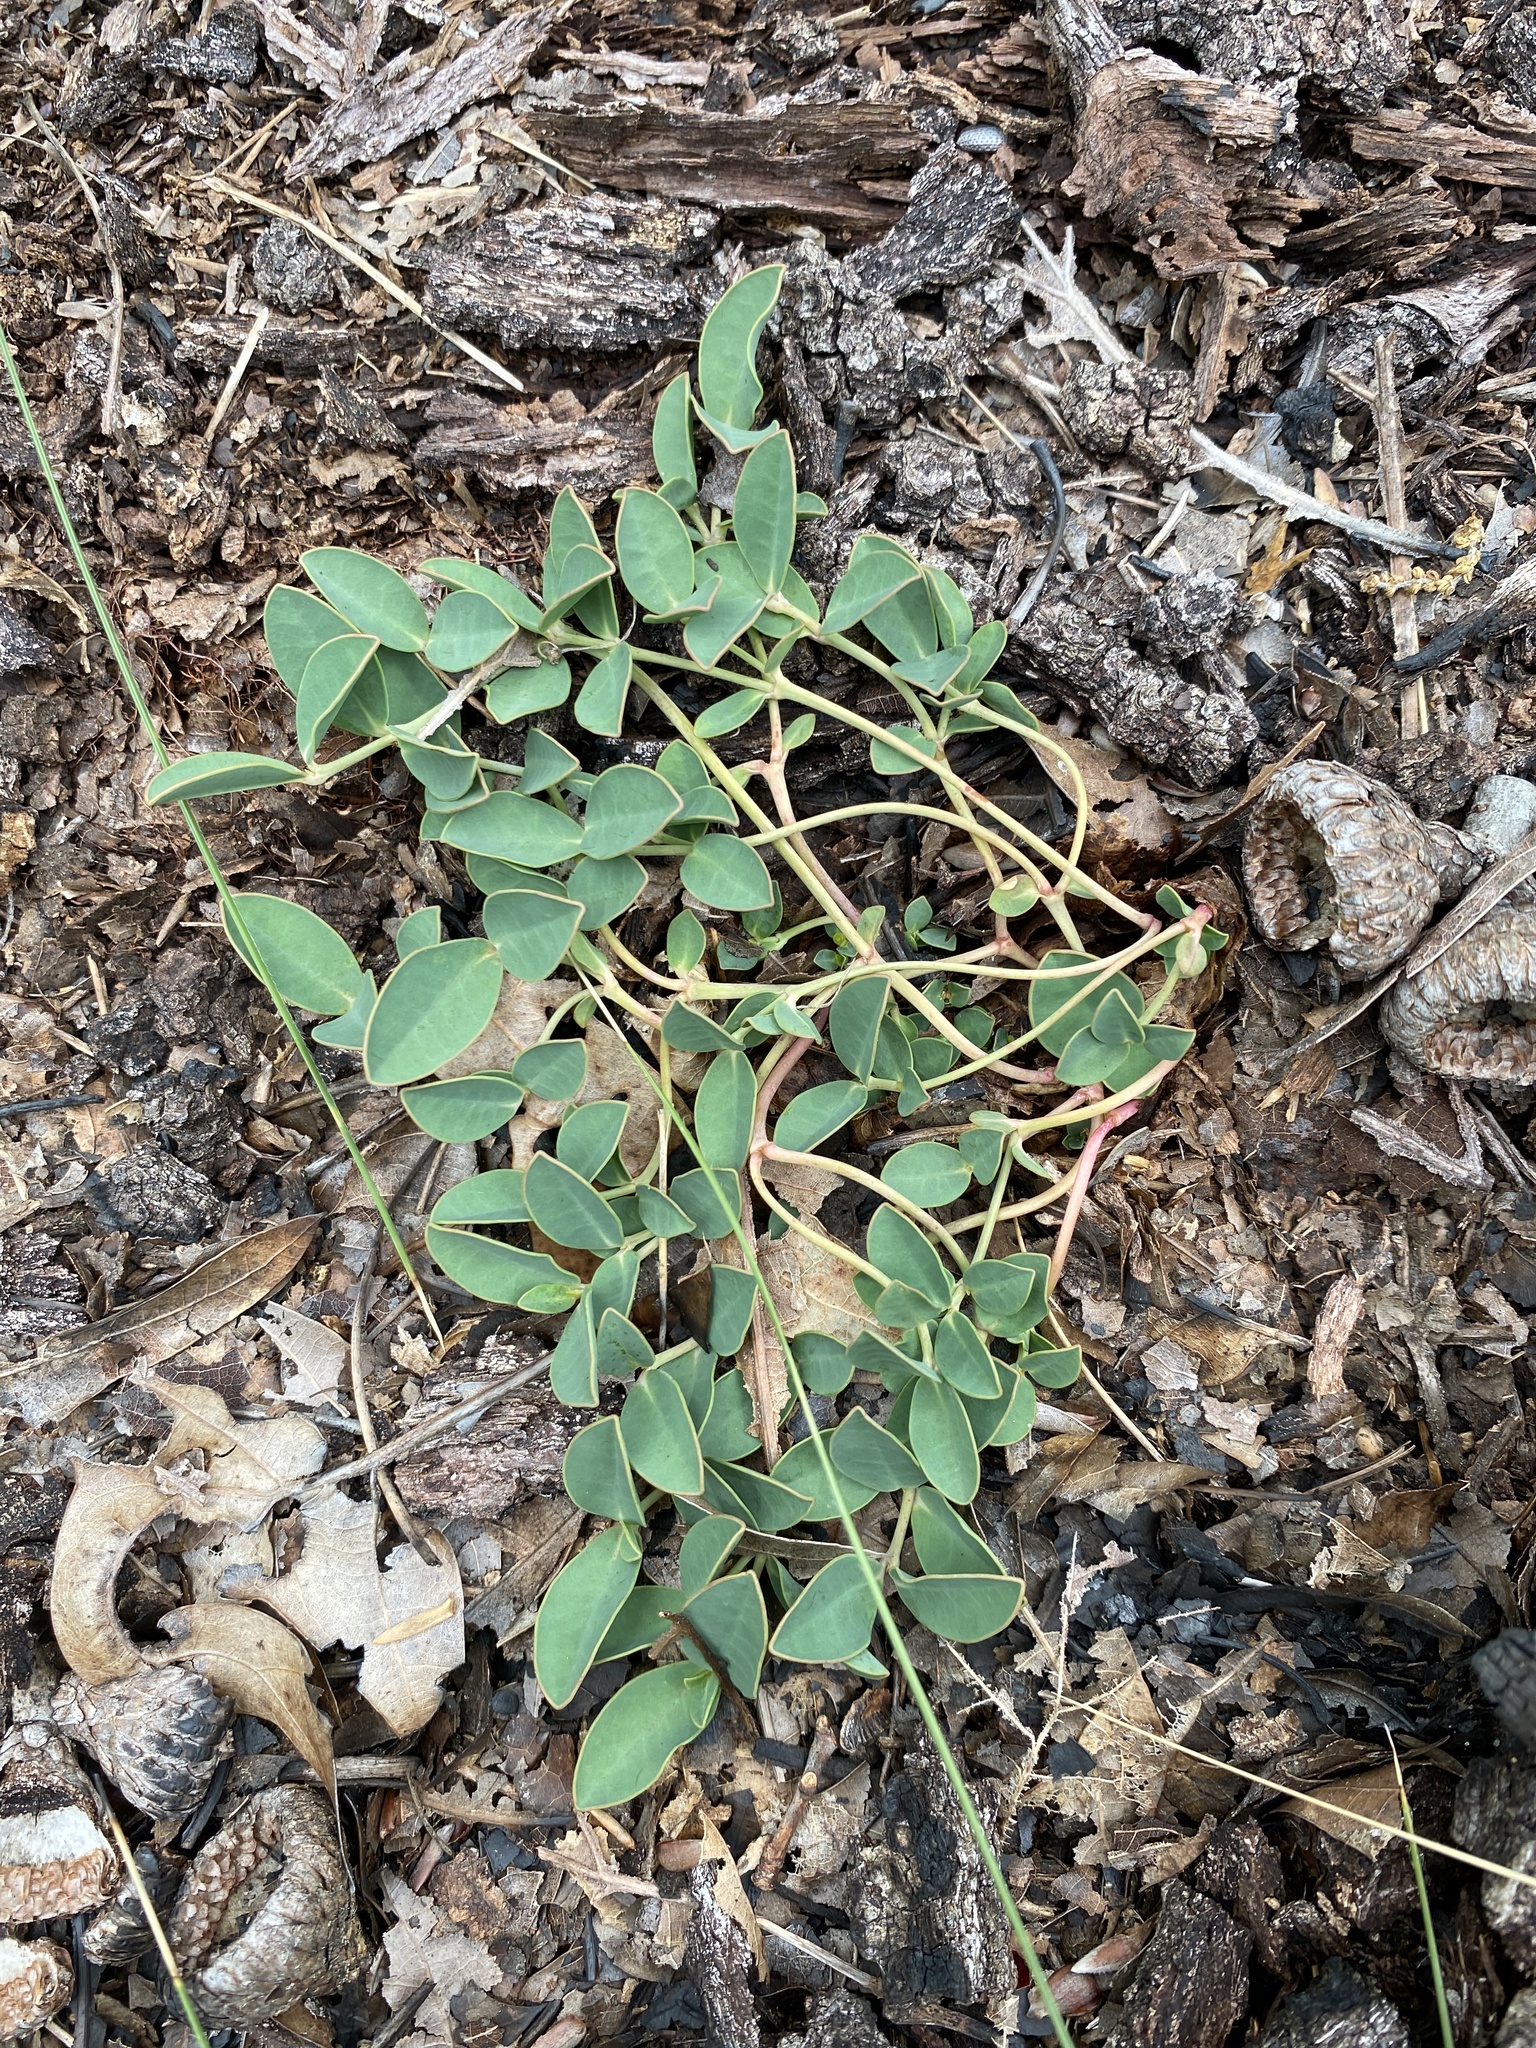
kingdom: Plantae
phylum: Tracheophyta
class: Magnoliopsida
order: Malpighiales
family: Euphorbiaceae
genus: Euphorbia
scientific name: Euphorbia ipecacuanhae
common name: Carolina ipecac
